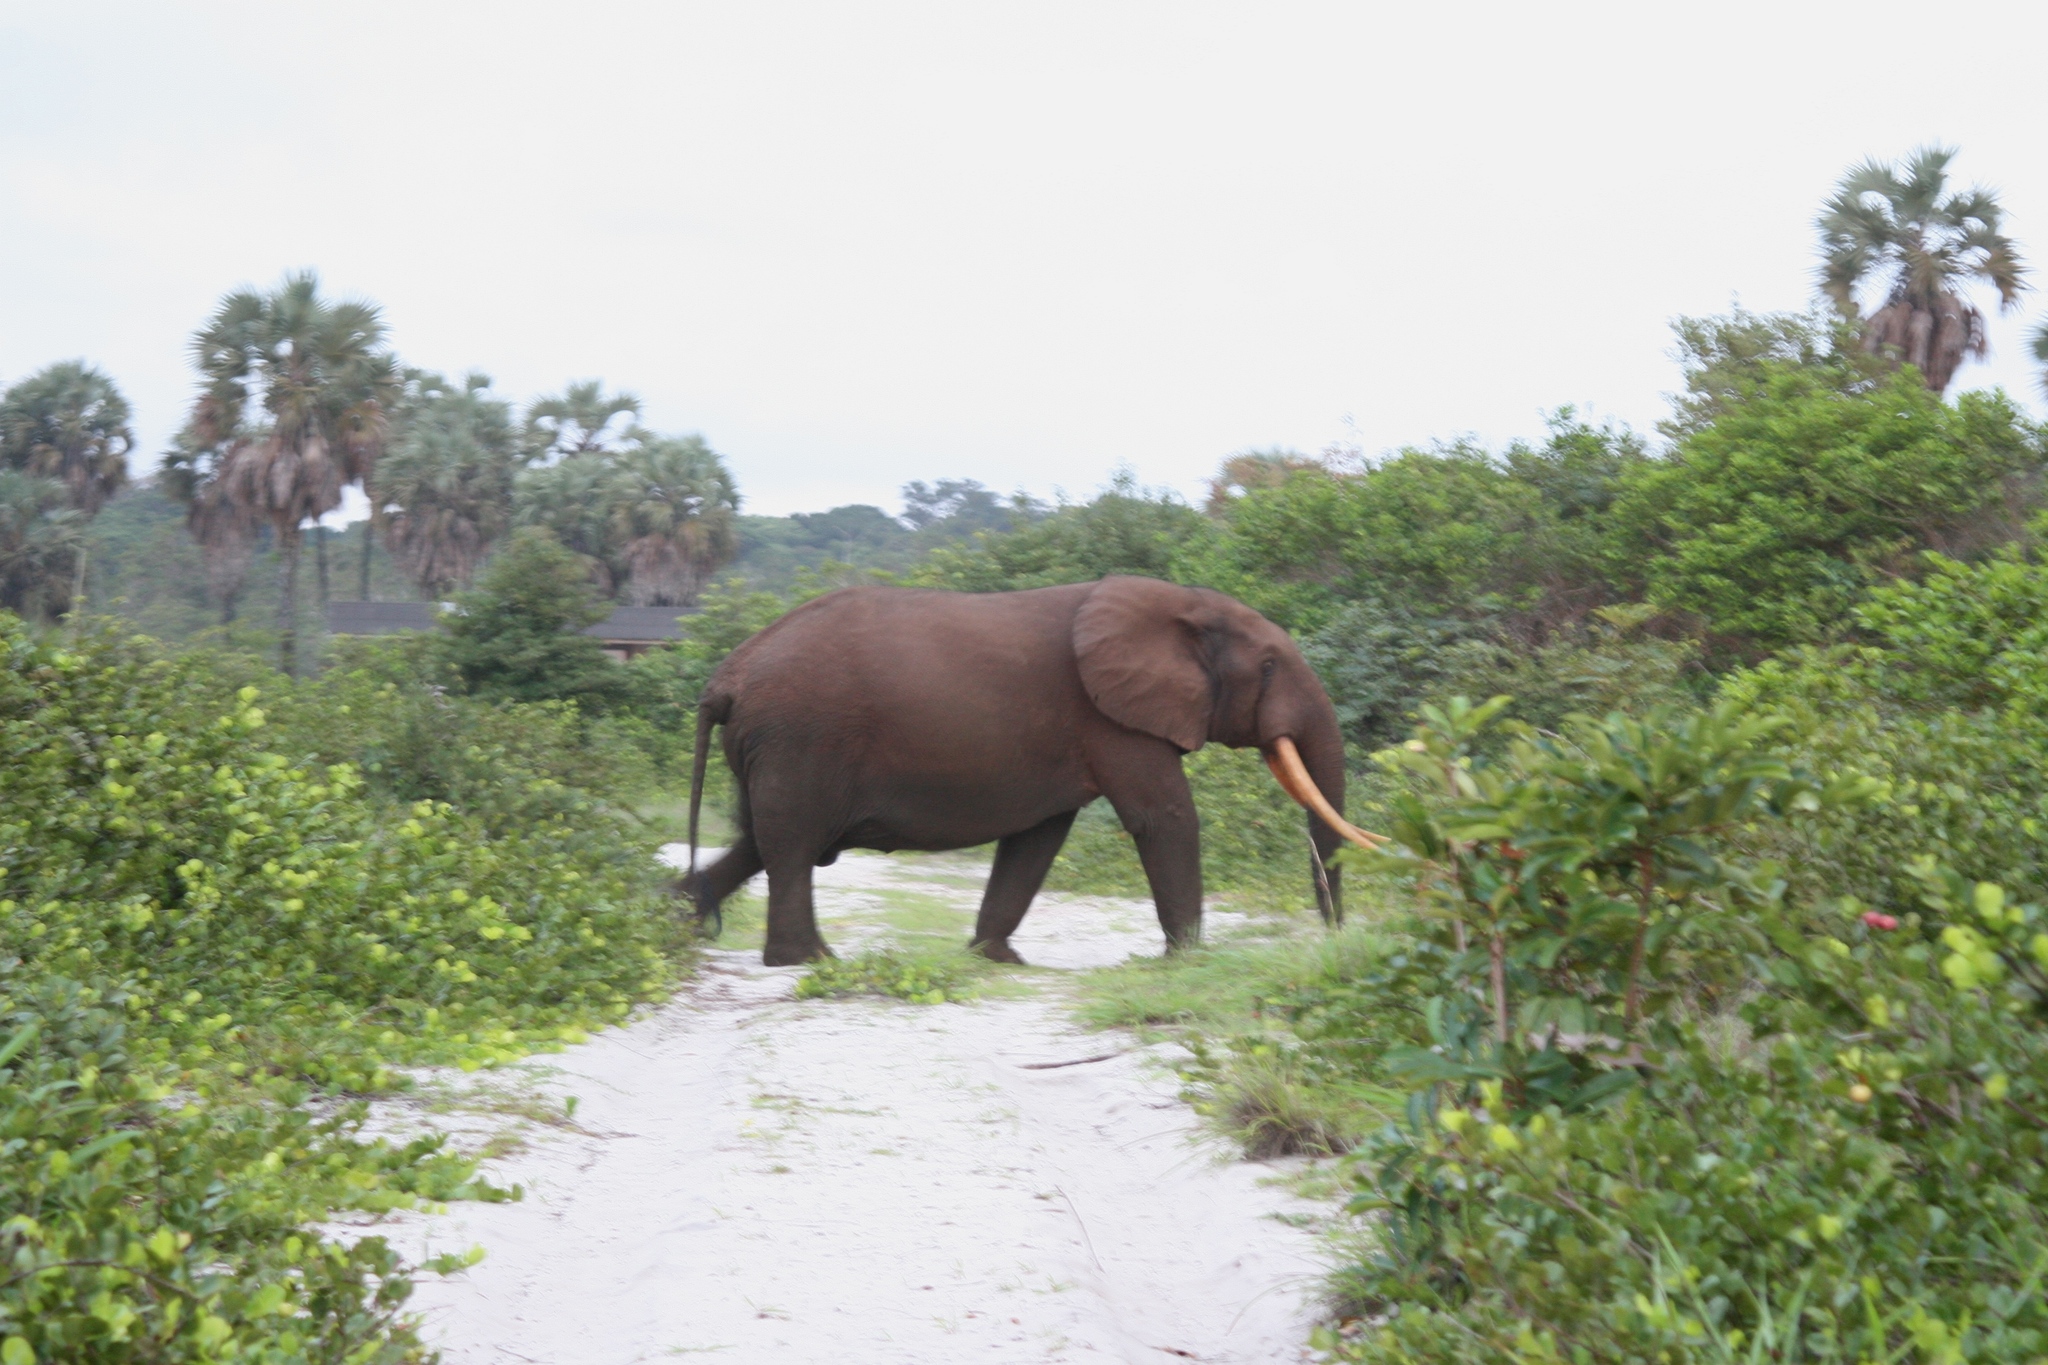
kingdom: Animalia
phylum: Chordata
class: Mammalia
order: Proboscidea
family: Elephantidae
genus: Loxodonta
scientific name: Loxodonta cyclotis
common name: African forest elephant
